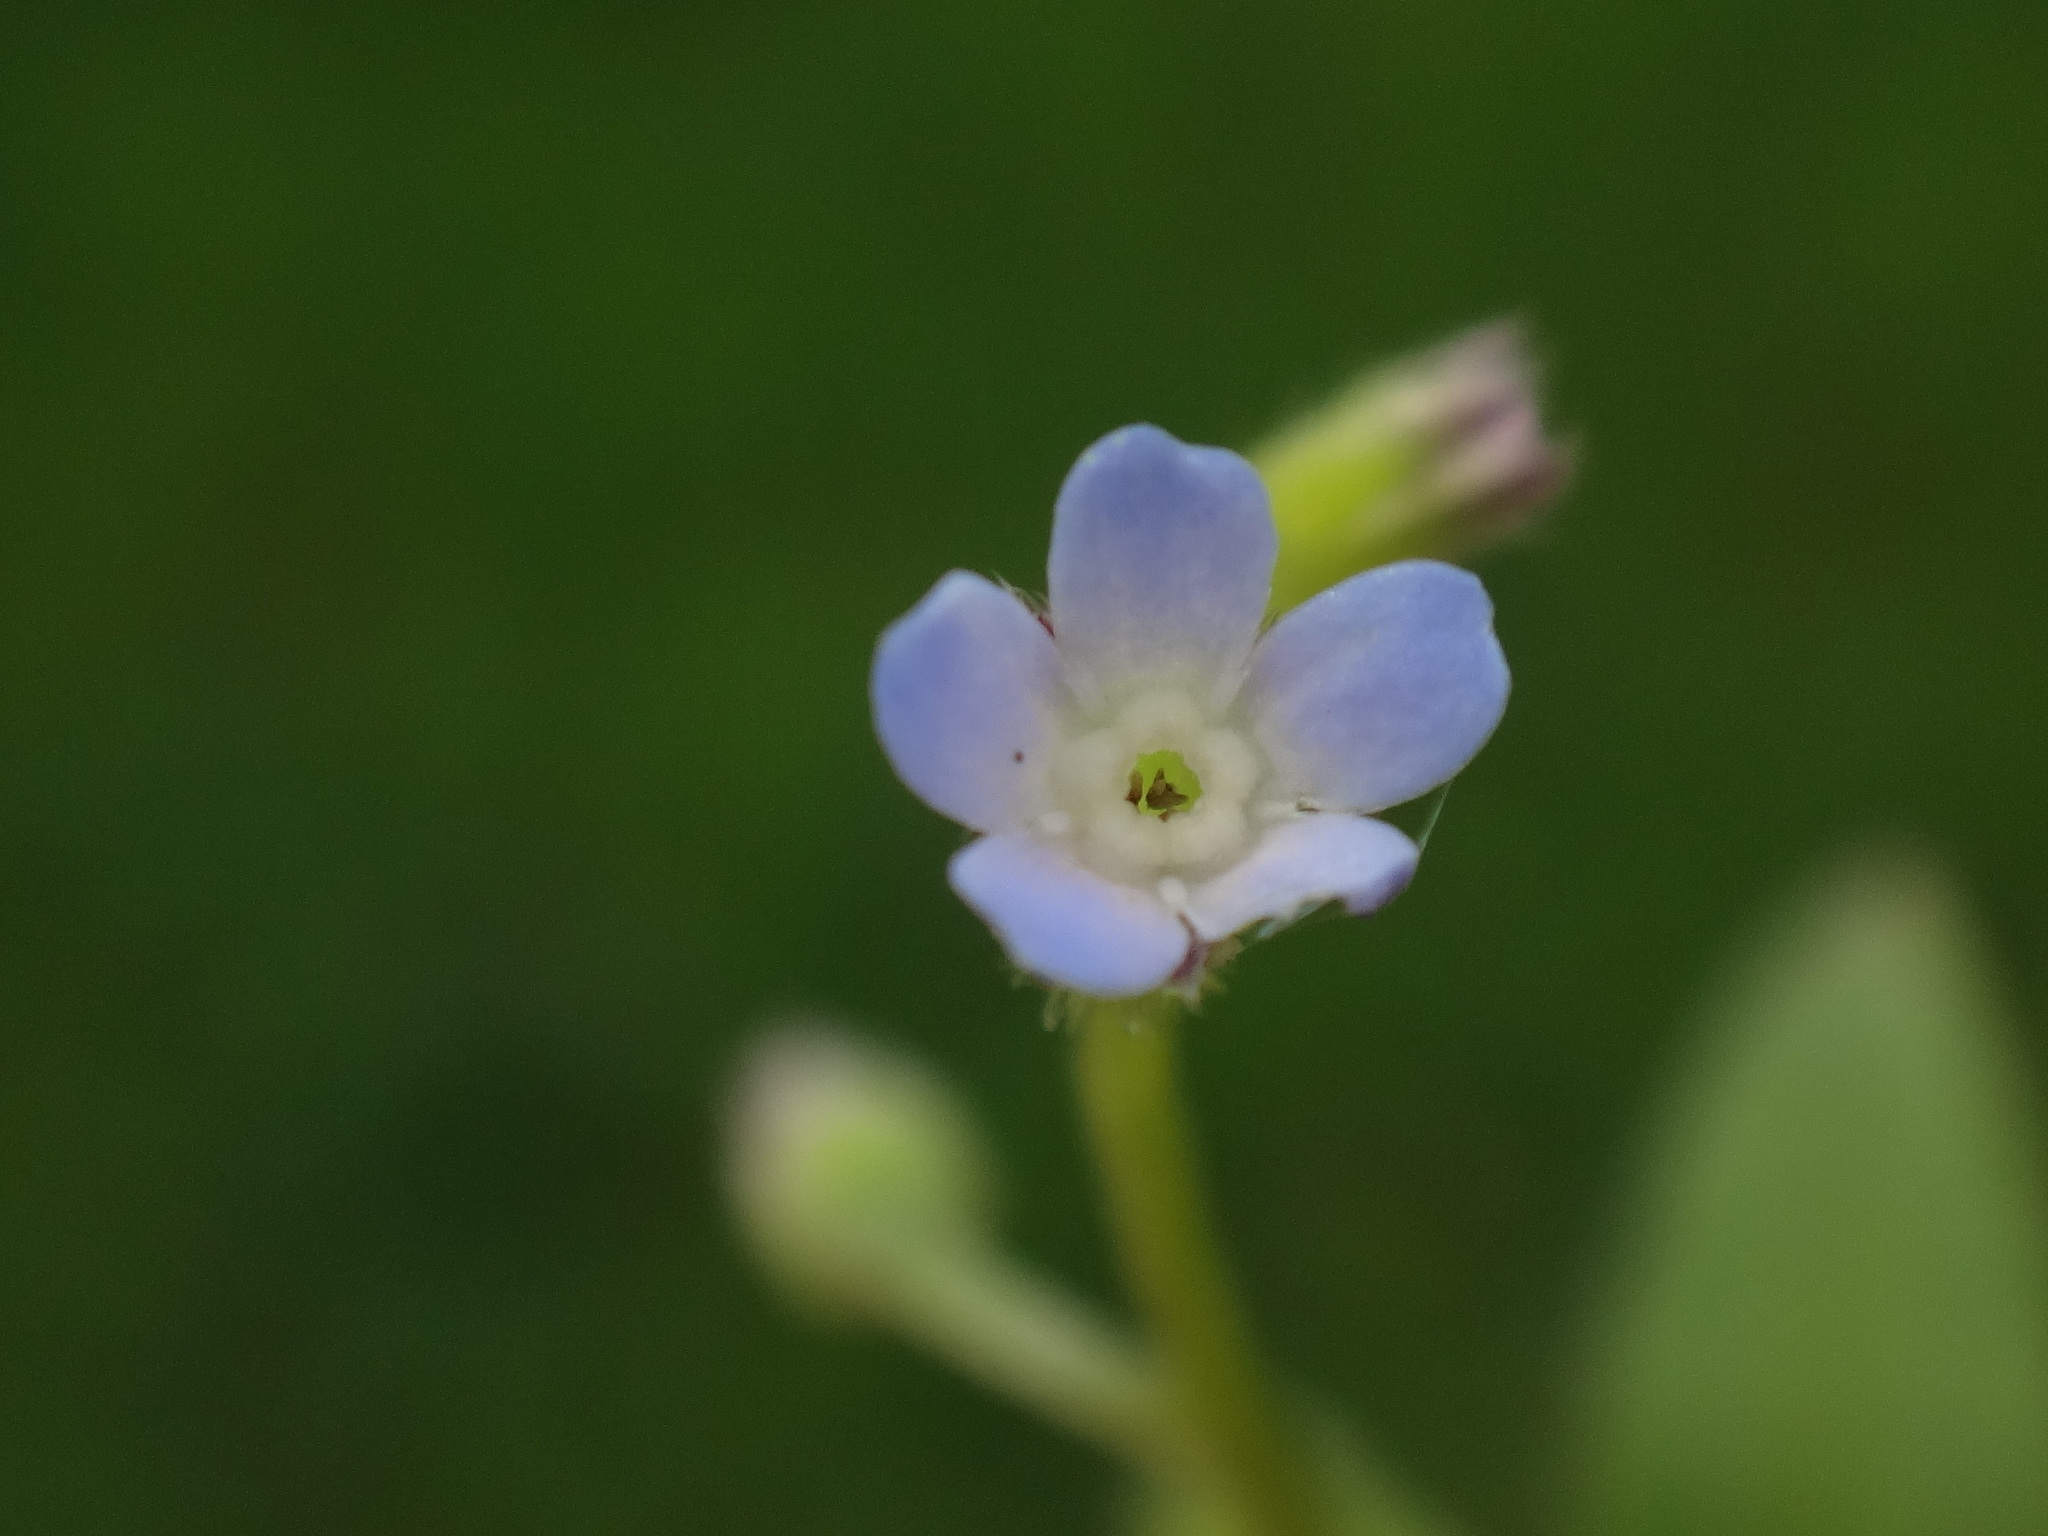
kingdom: Plantae
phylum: Tracheophyta
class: Magnoliopsida
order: Boraginales
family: Boraginaceae
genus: Myosotis
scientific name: Myosotis sparsiflora
